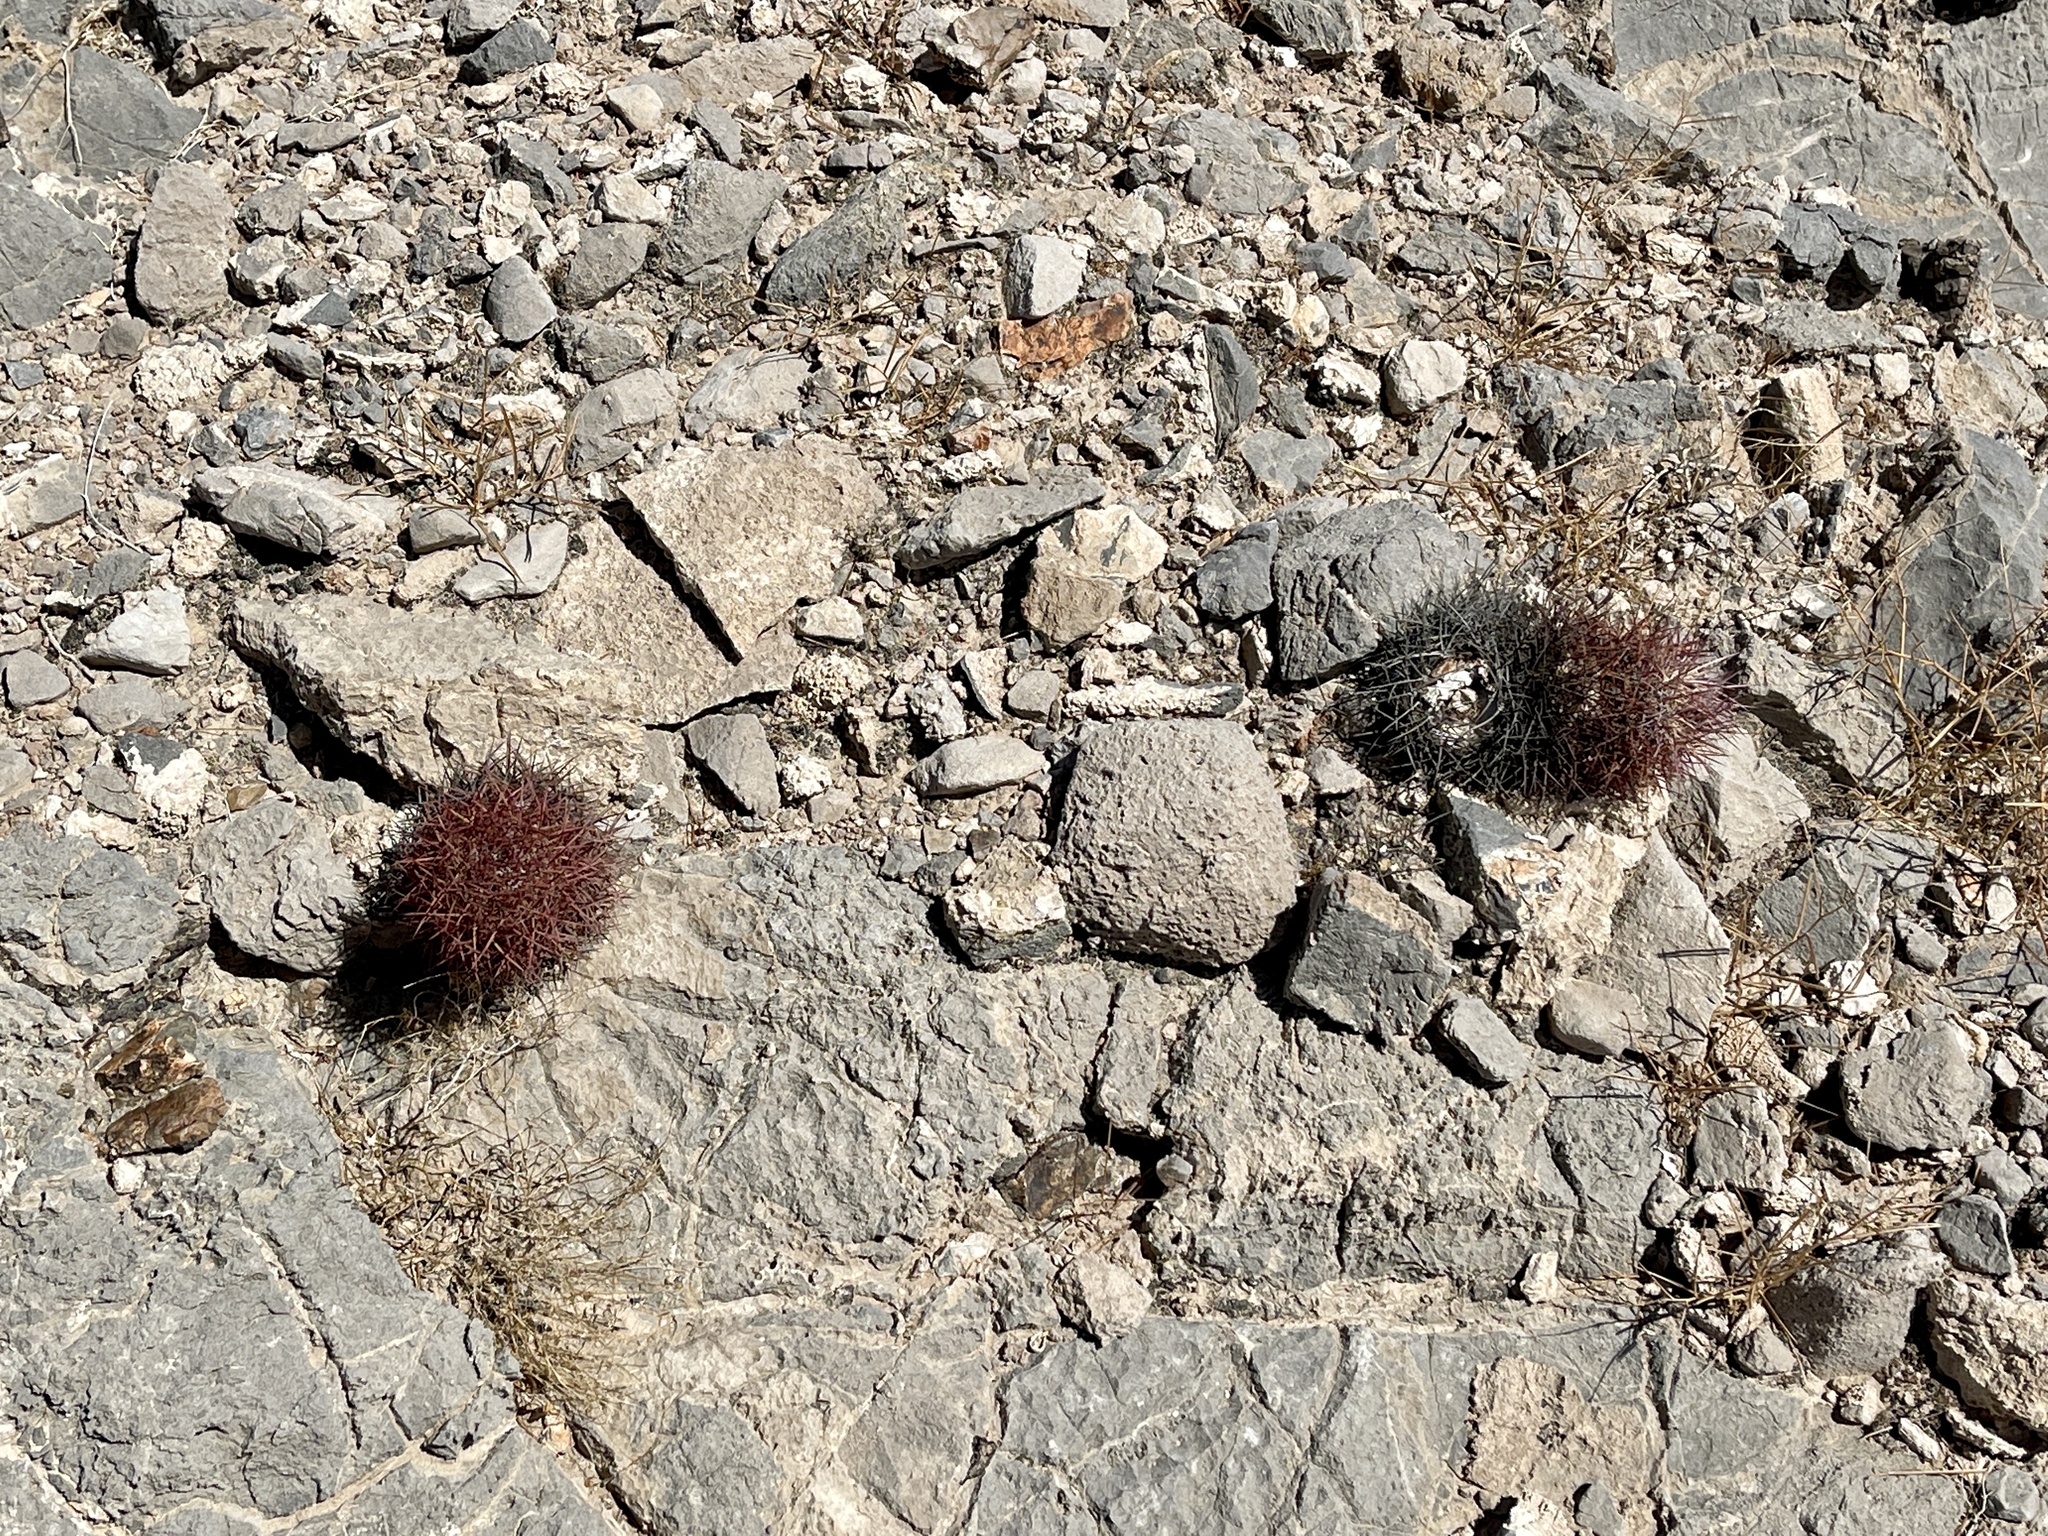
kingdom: Plantae
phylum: Tracheophyta
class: Magnoliopsida
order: Caryophyllales
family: Cactaceae
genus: Sclerocactus
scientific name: Sclerocactus johnsonii
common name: Eight-spine fishhook cactus
